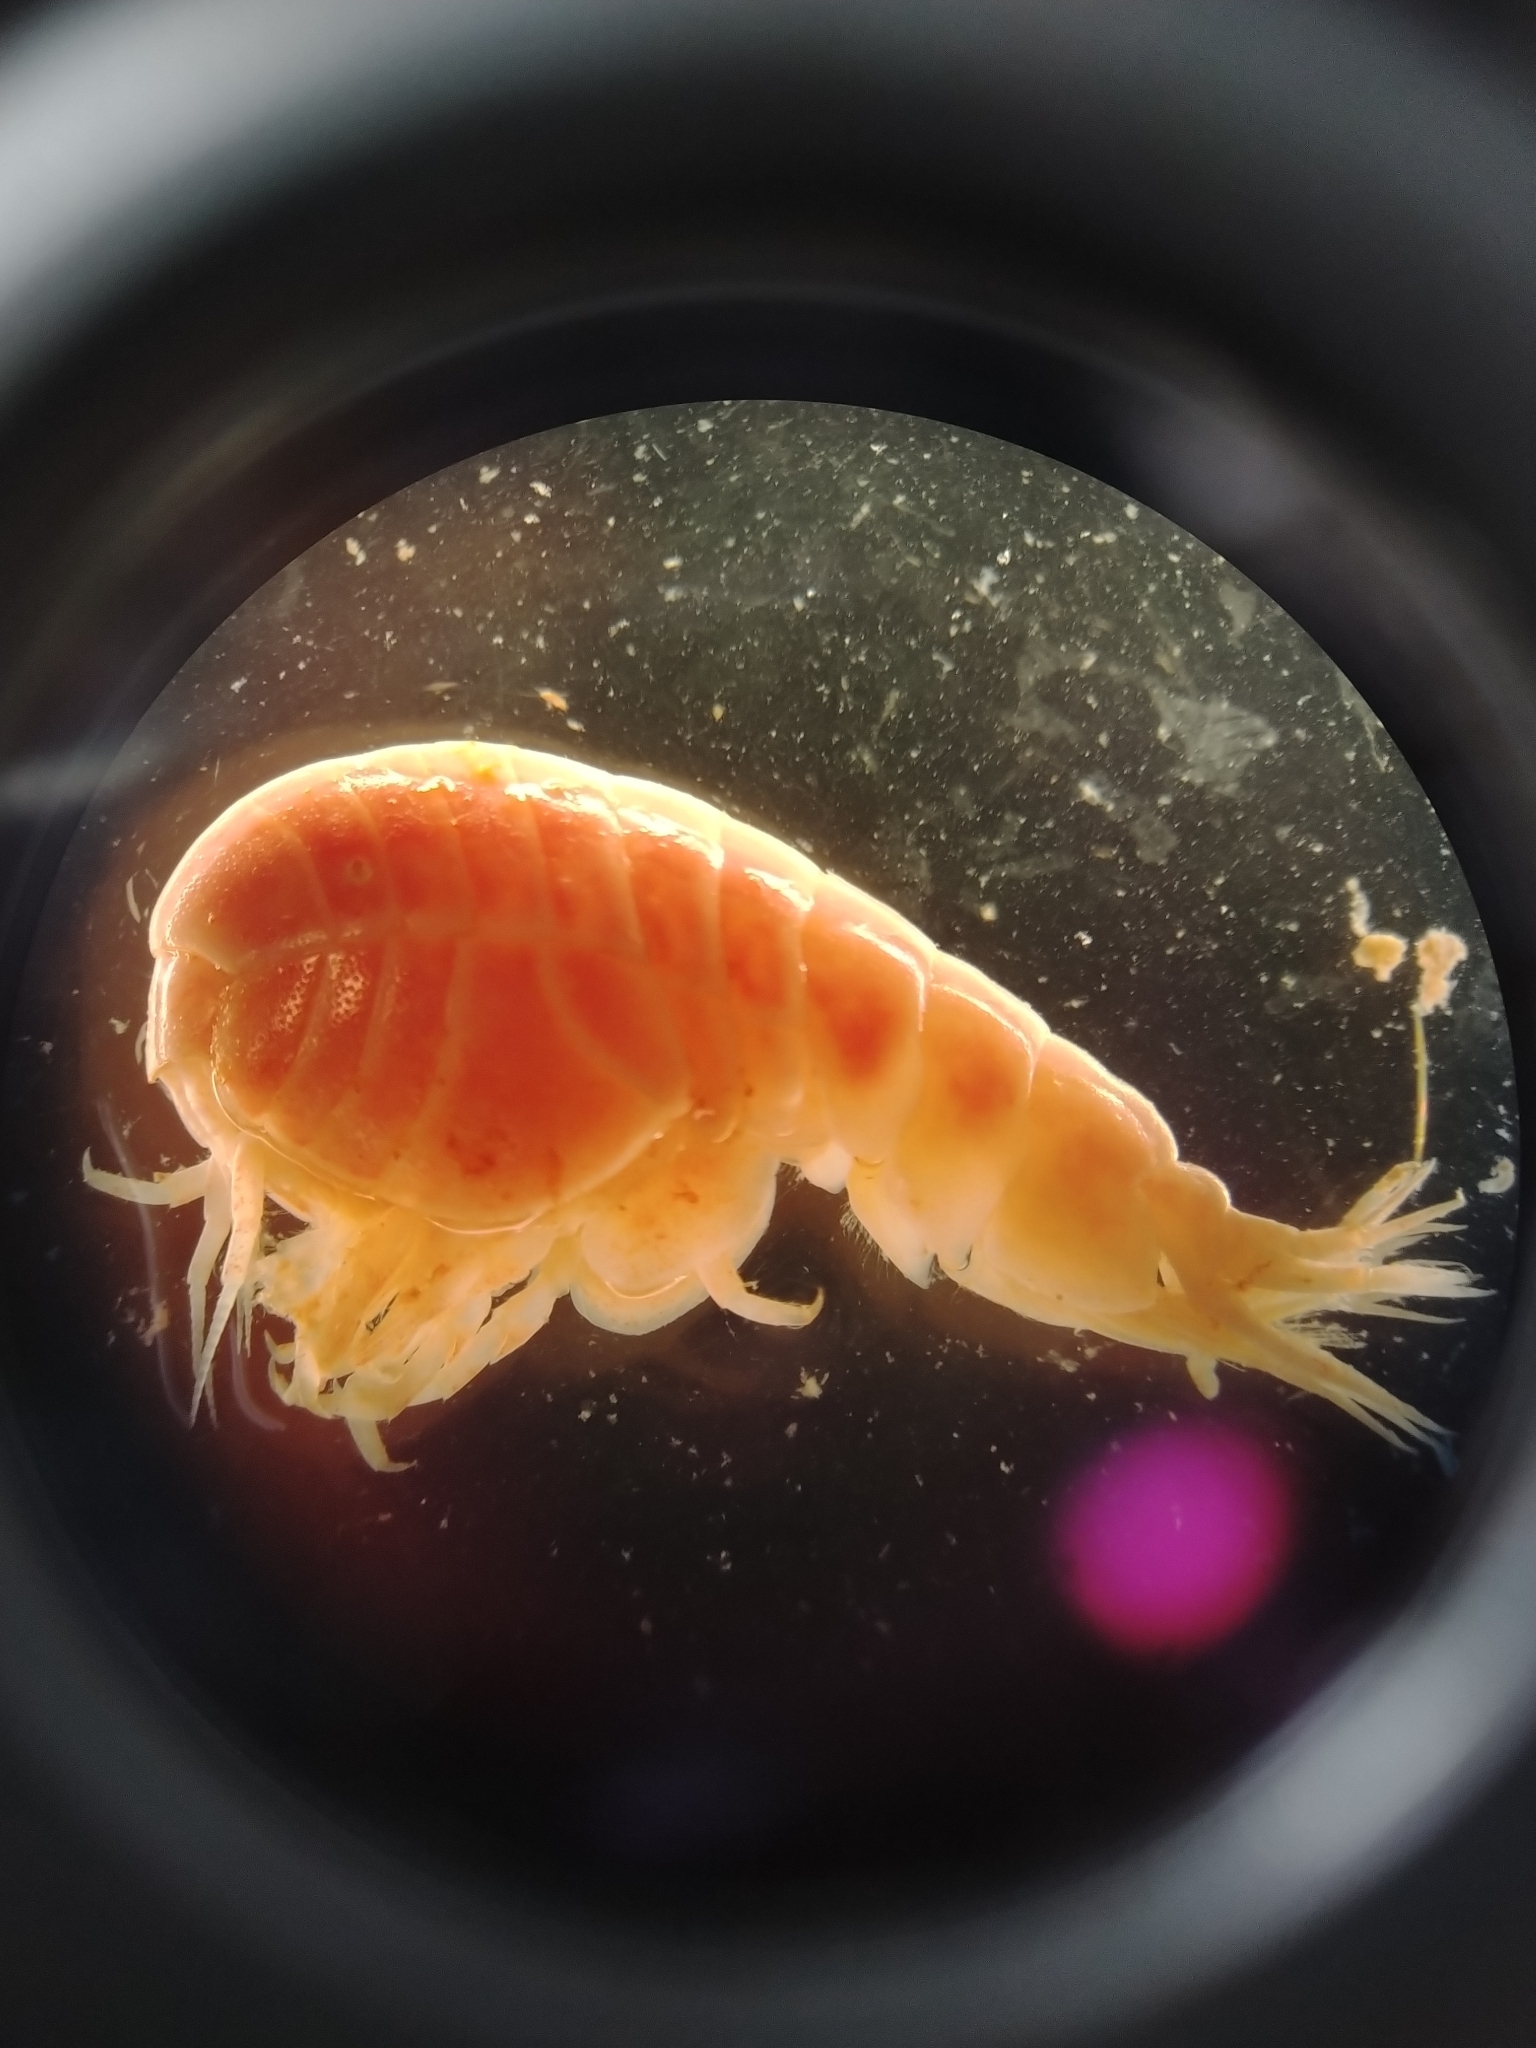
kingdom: Animalia
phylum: Arthropoda
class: Malacostraca
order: Amphipoda
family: Stegocephalidae
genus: Stegocephalus
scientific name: Stegocephalus inflatus
